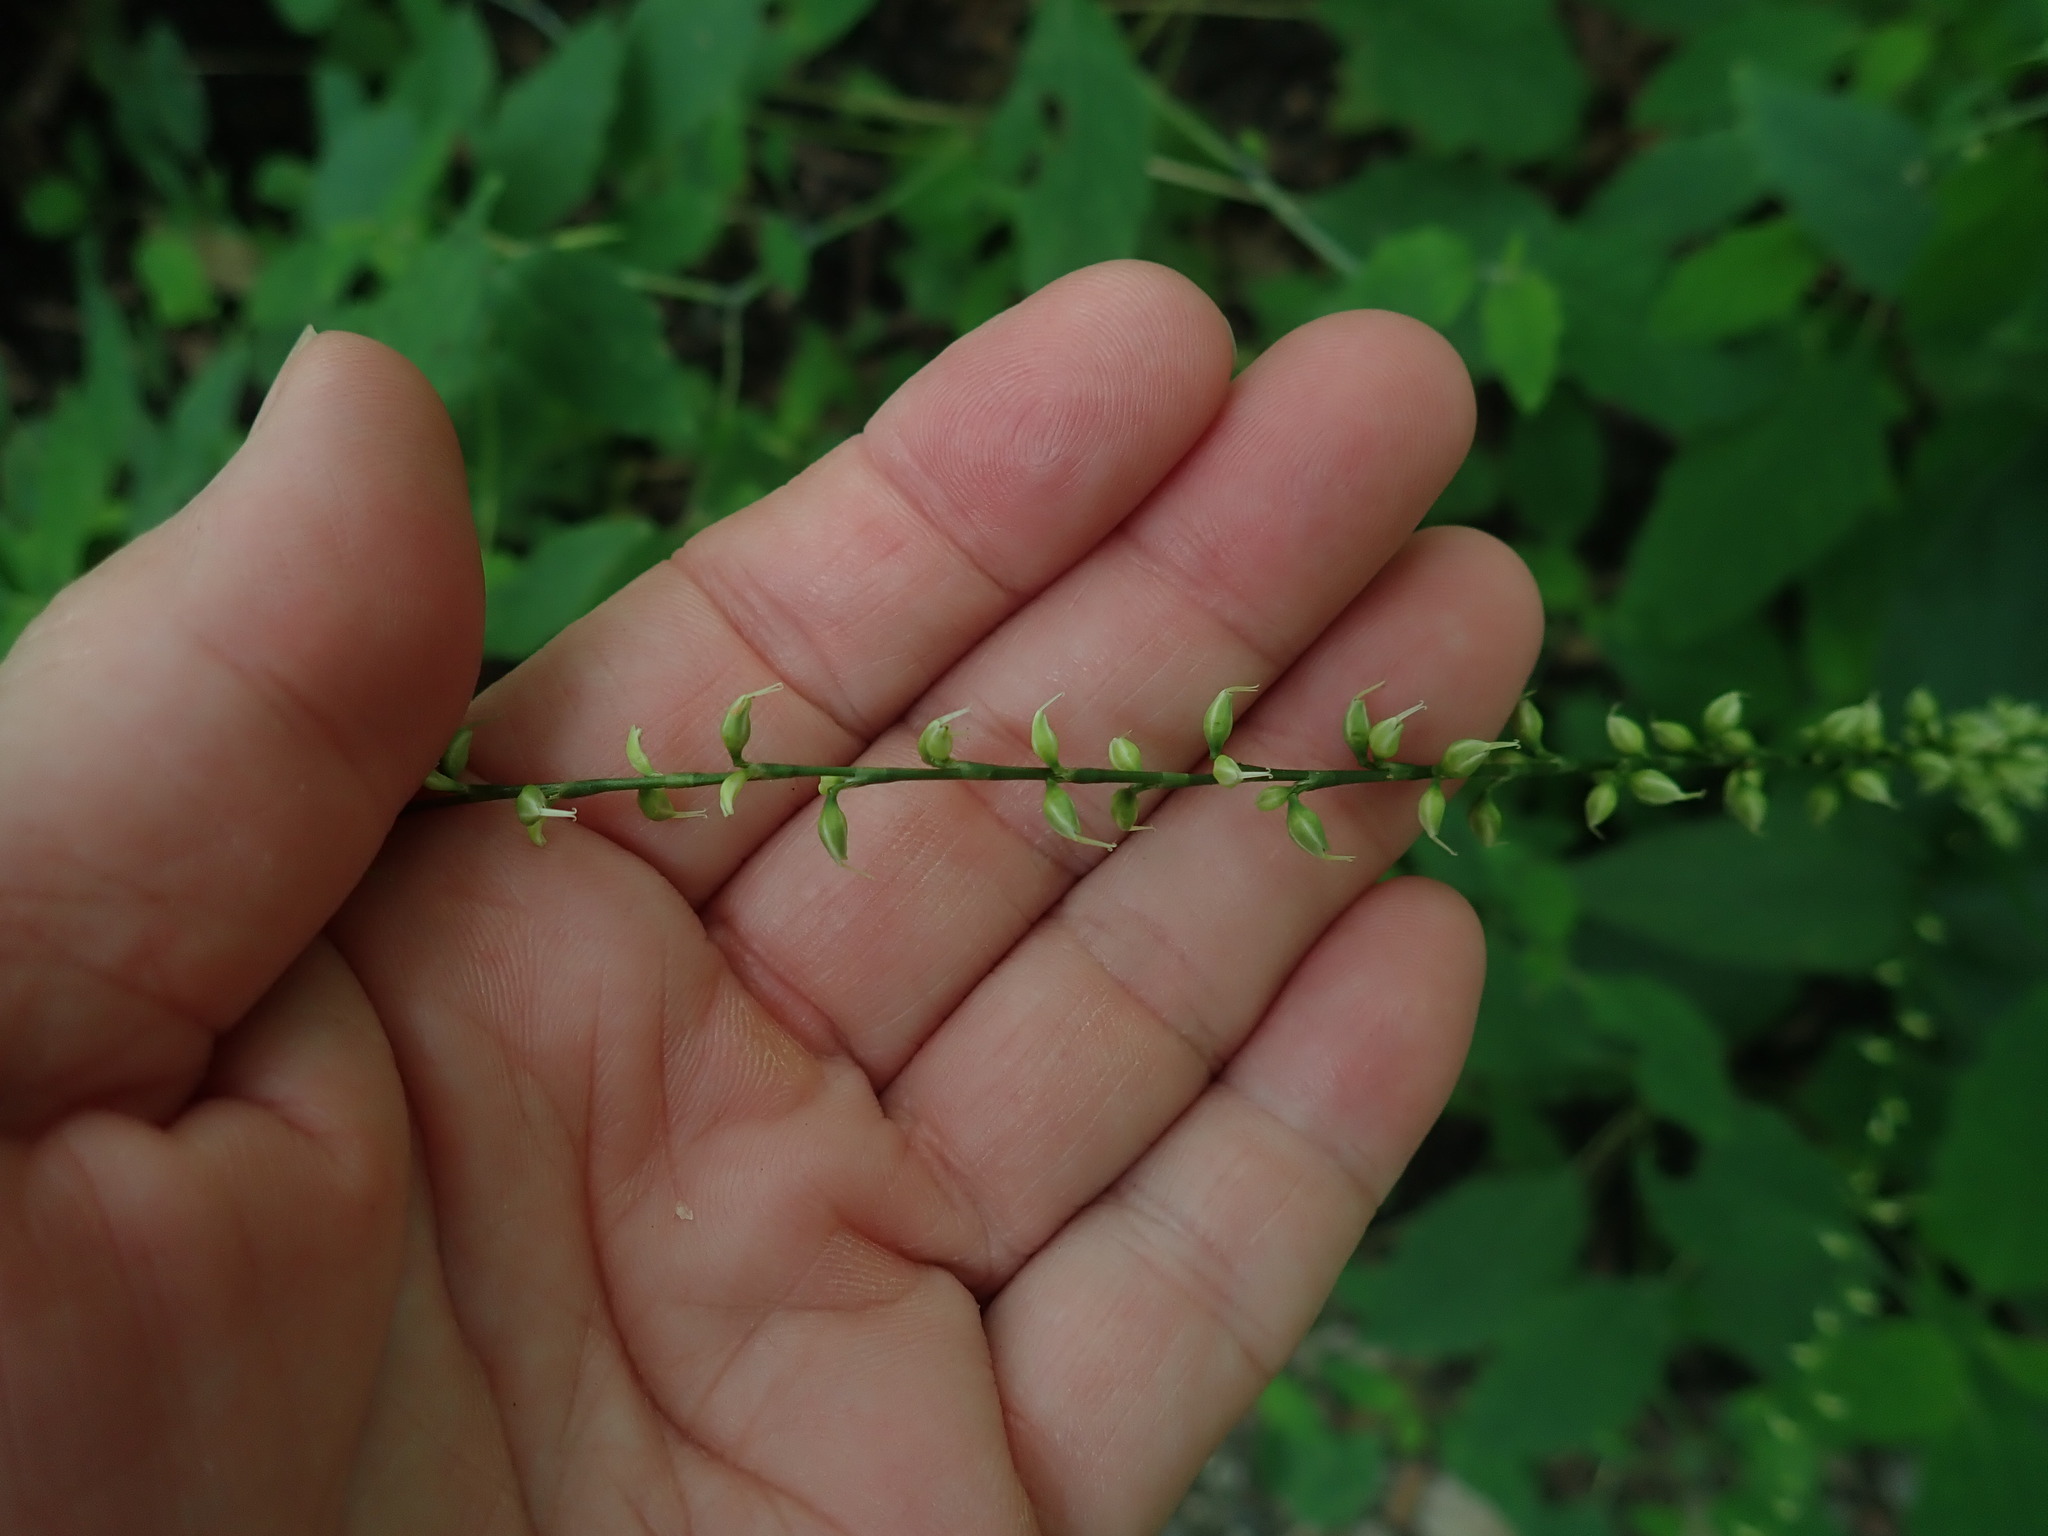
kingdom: Plantae
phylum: Tracheophyta
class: Magnoliopsida
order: Caryophyllales
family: Polygonaceae
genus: Persicaria
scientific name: Persicaria virginiana
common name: Jumpseed
